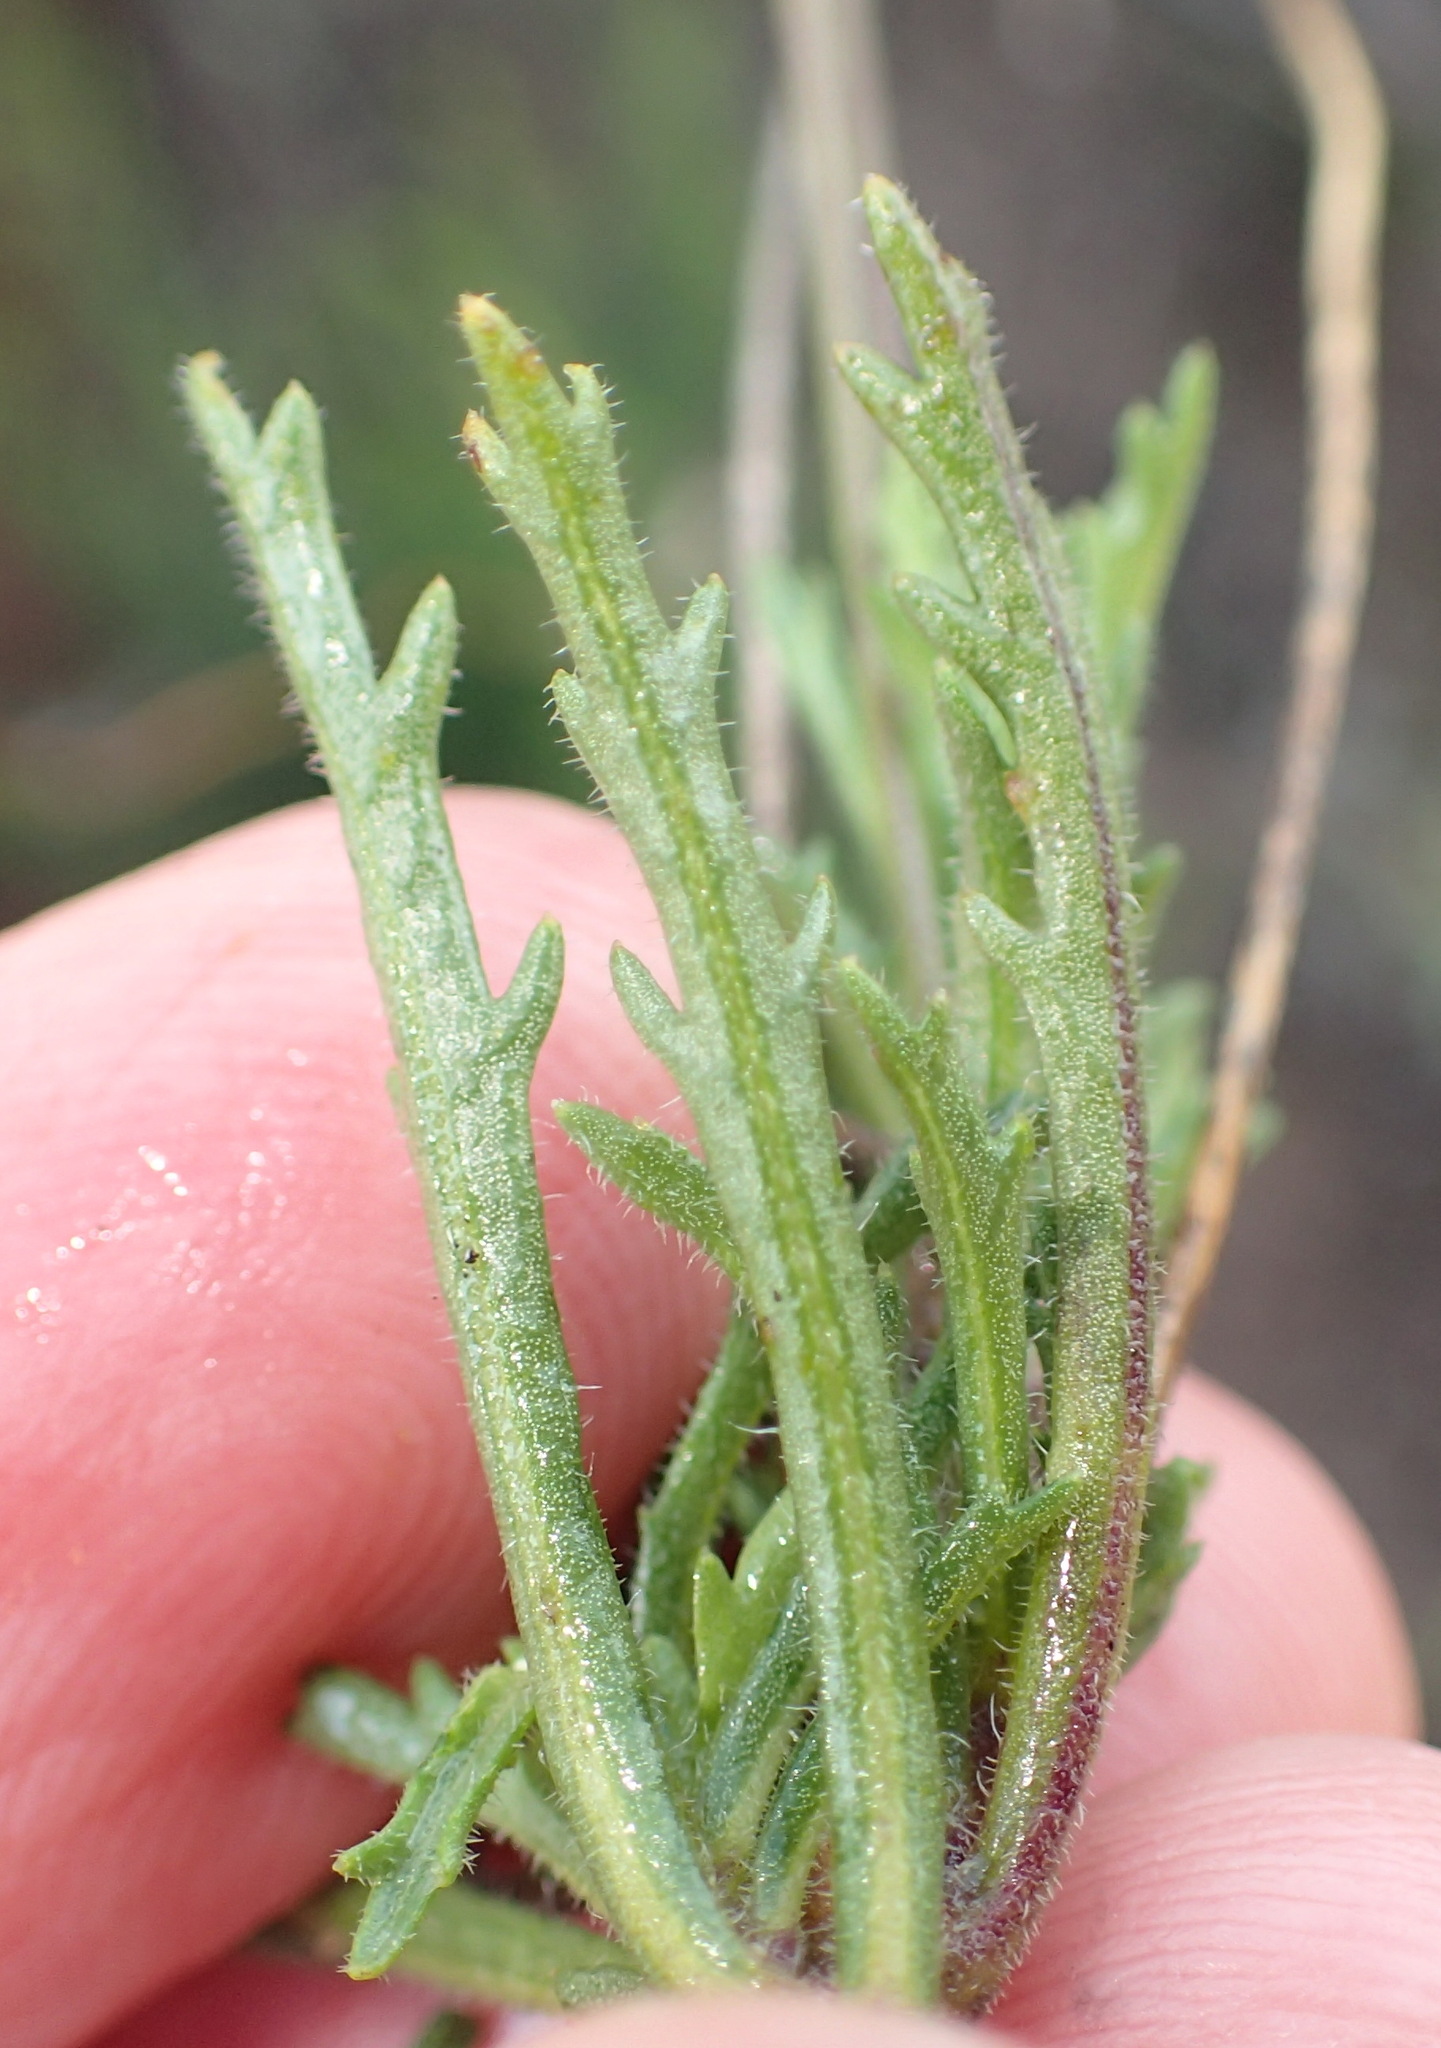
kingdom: Plantae
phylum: Tracheophyta
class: Magnoliopsida
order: Asterales
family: Campanulaceae
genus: Lobelia
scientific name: Lobelia coronopifolia
